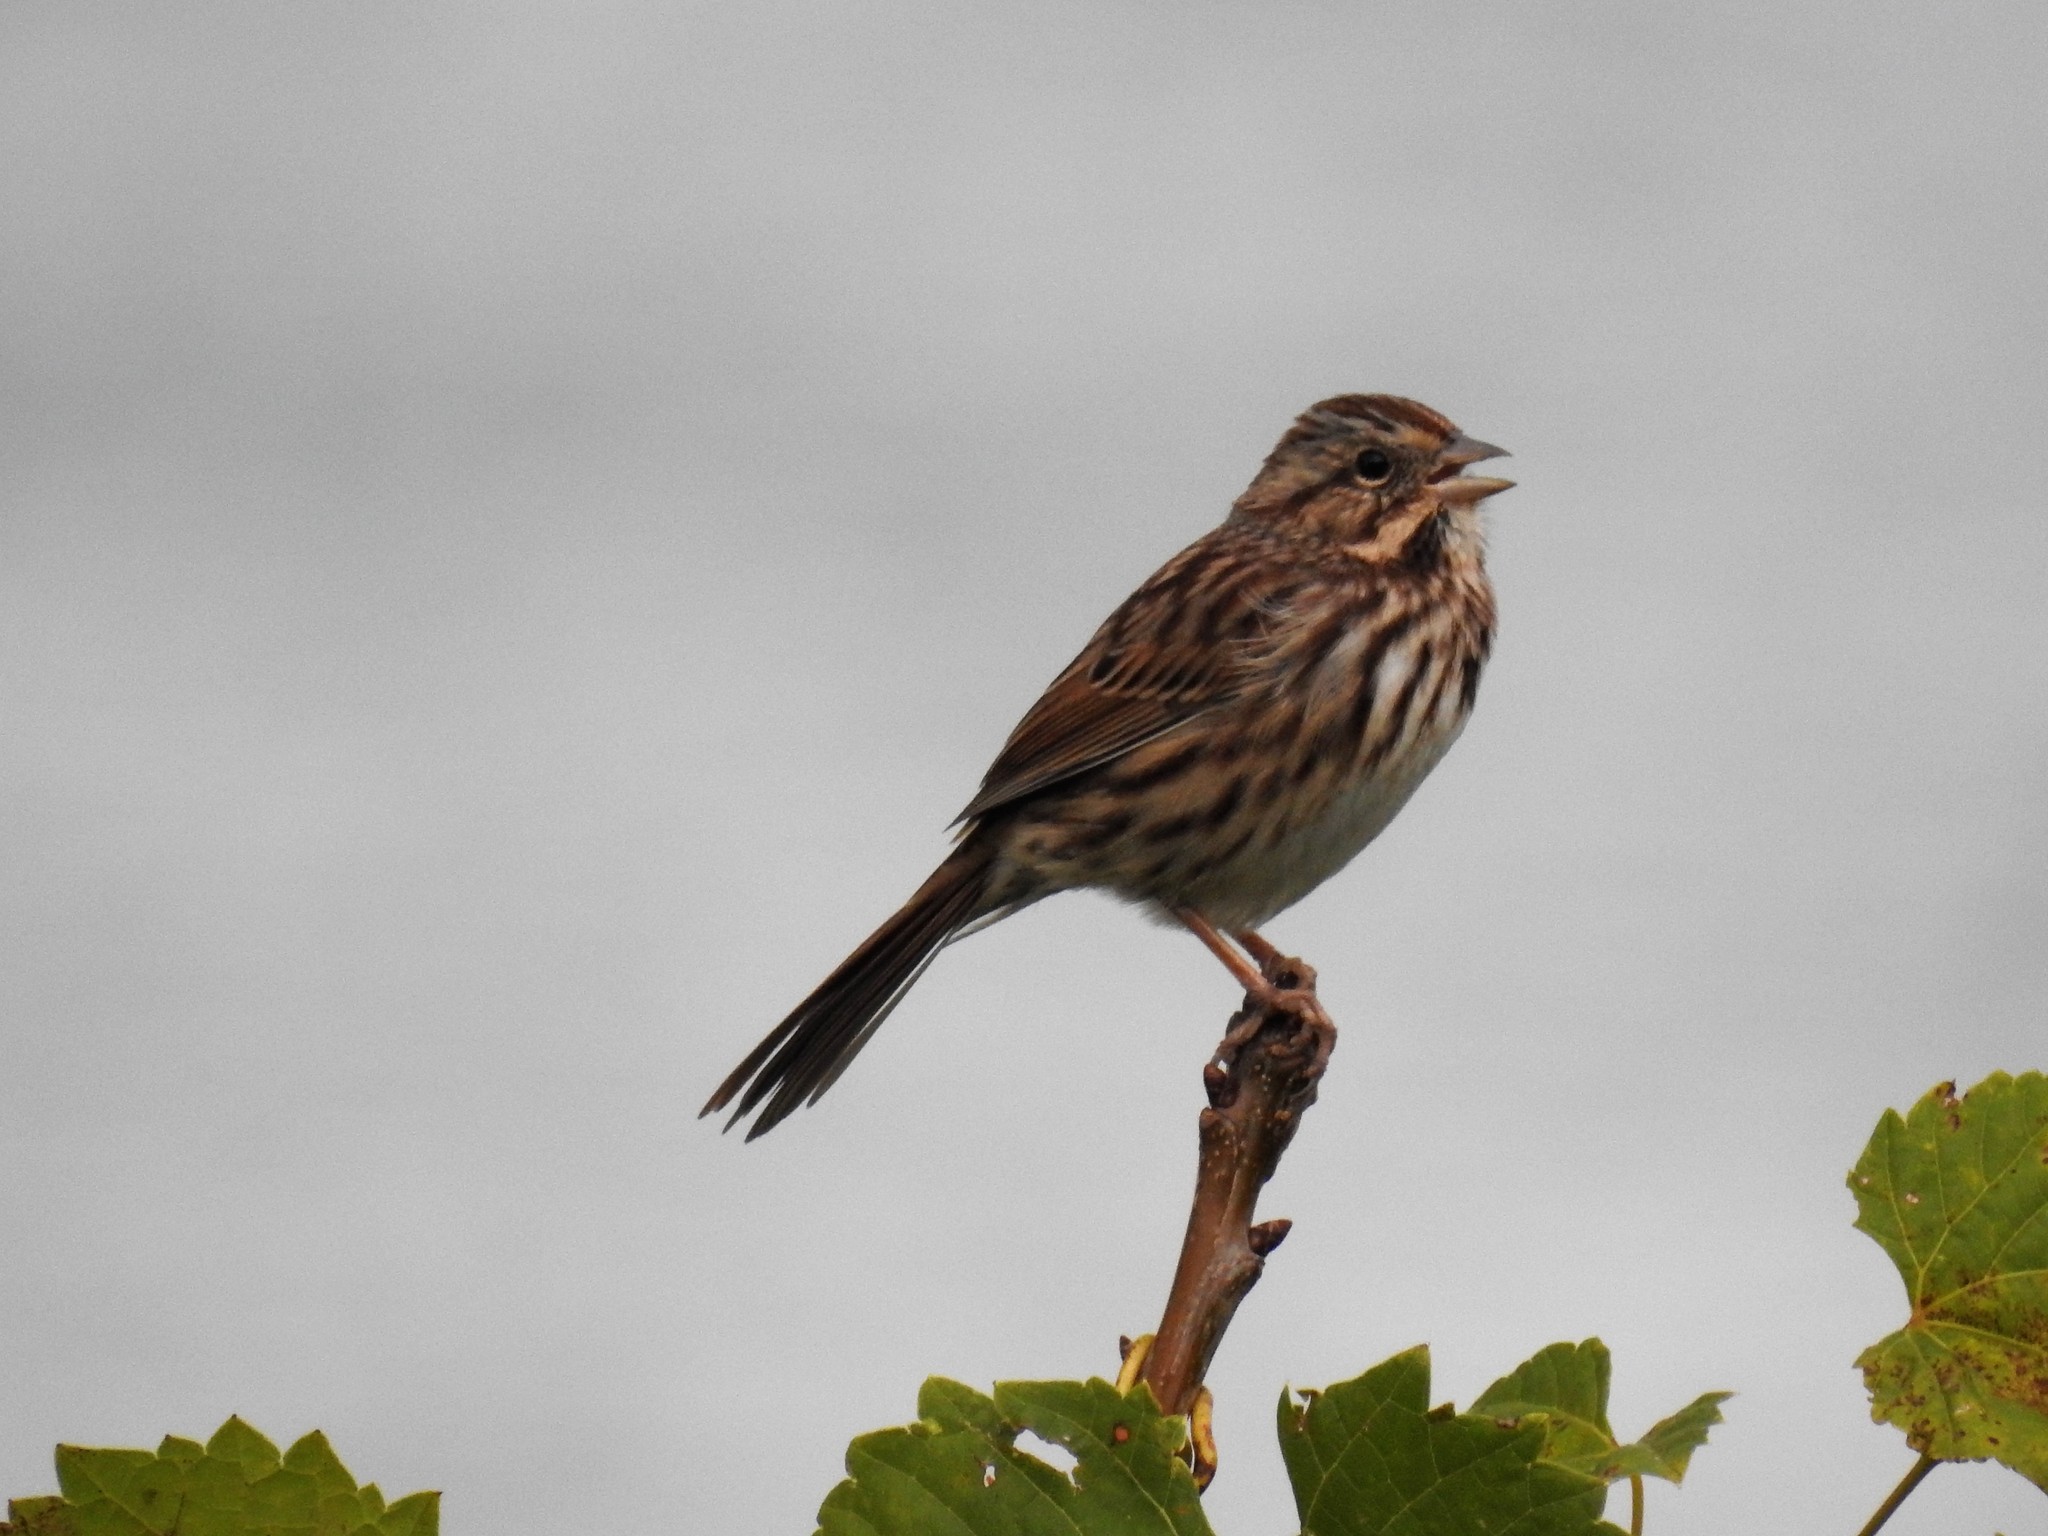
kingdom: Animalia
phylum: Chordata
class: Aves
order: Passeriformes
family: Passerellidae
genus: Melospiza
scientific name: Melospiza melodia
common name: Song sparrow
